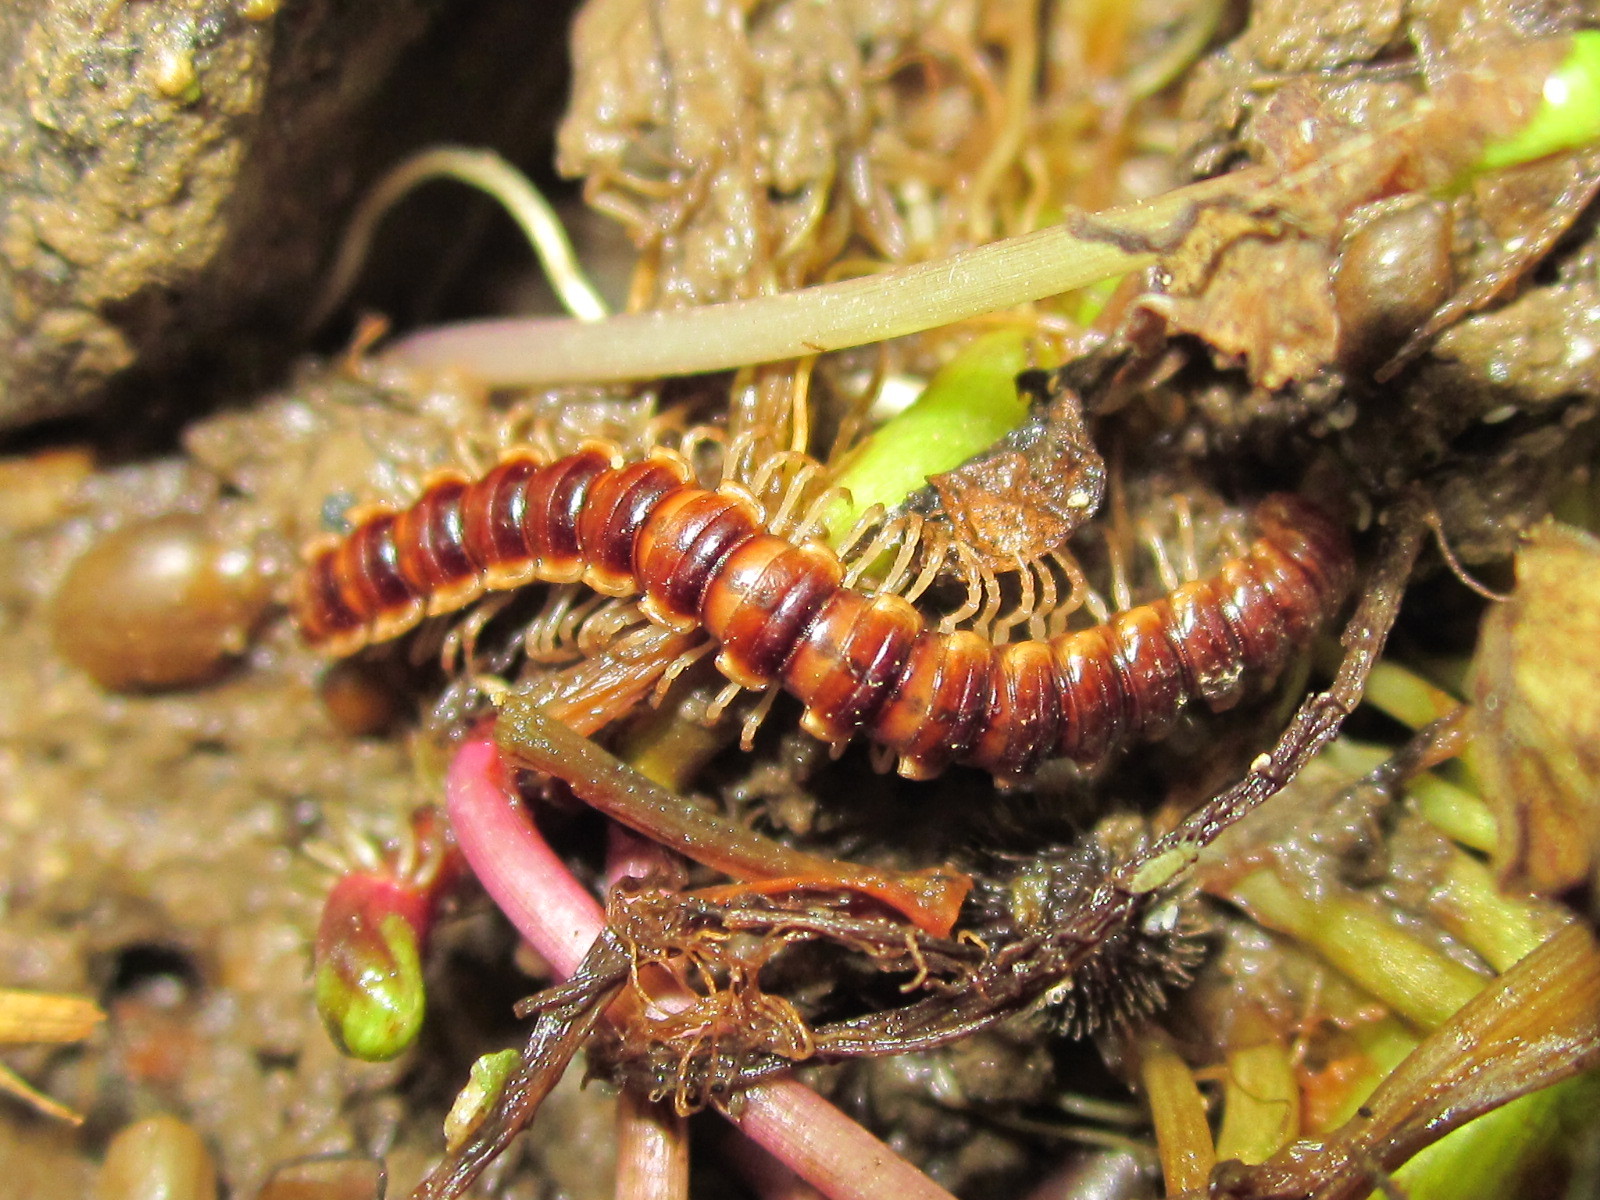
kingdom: Animalia
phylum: Arthropoda
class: Diplopoda
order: Polydesmida
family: Paradoxosomatidae
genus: Oxidus
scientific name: Oxidus gracilis
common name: Greenhouse millipede
